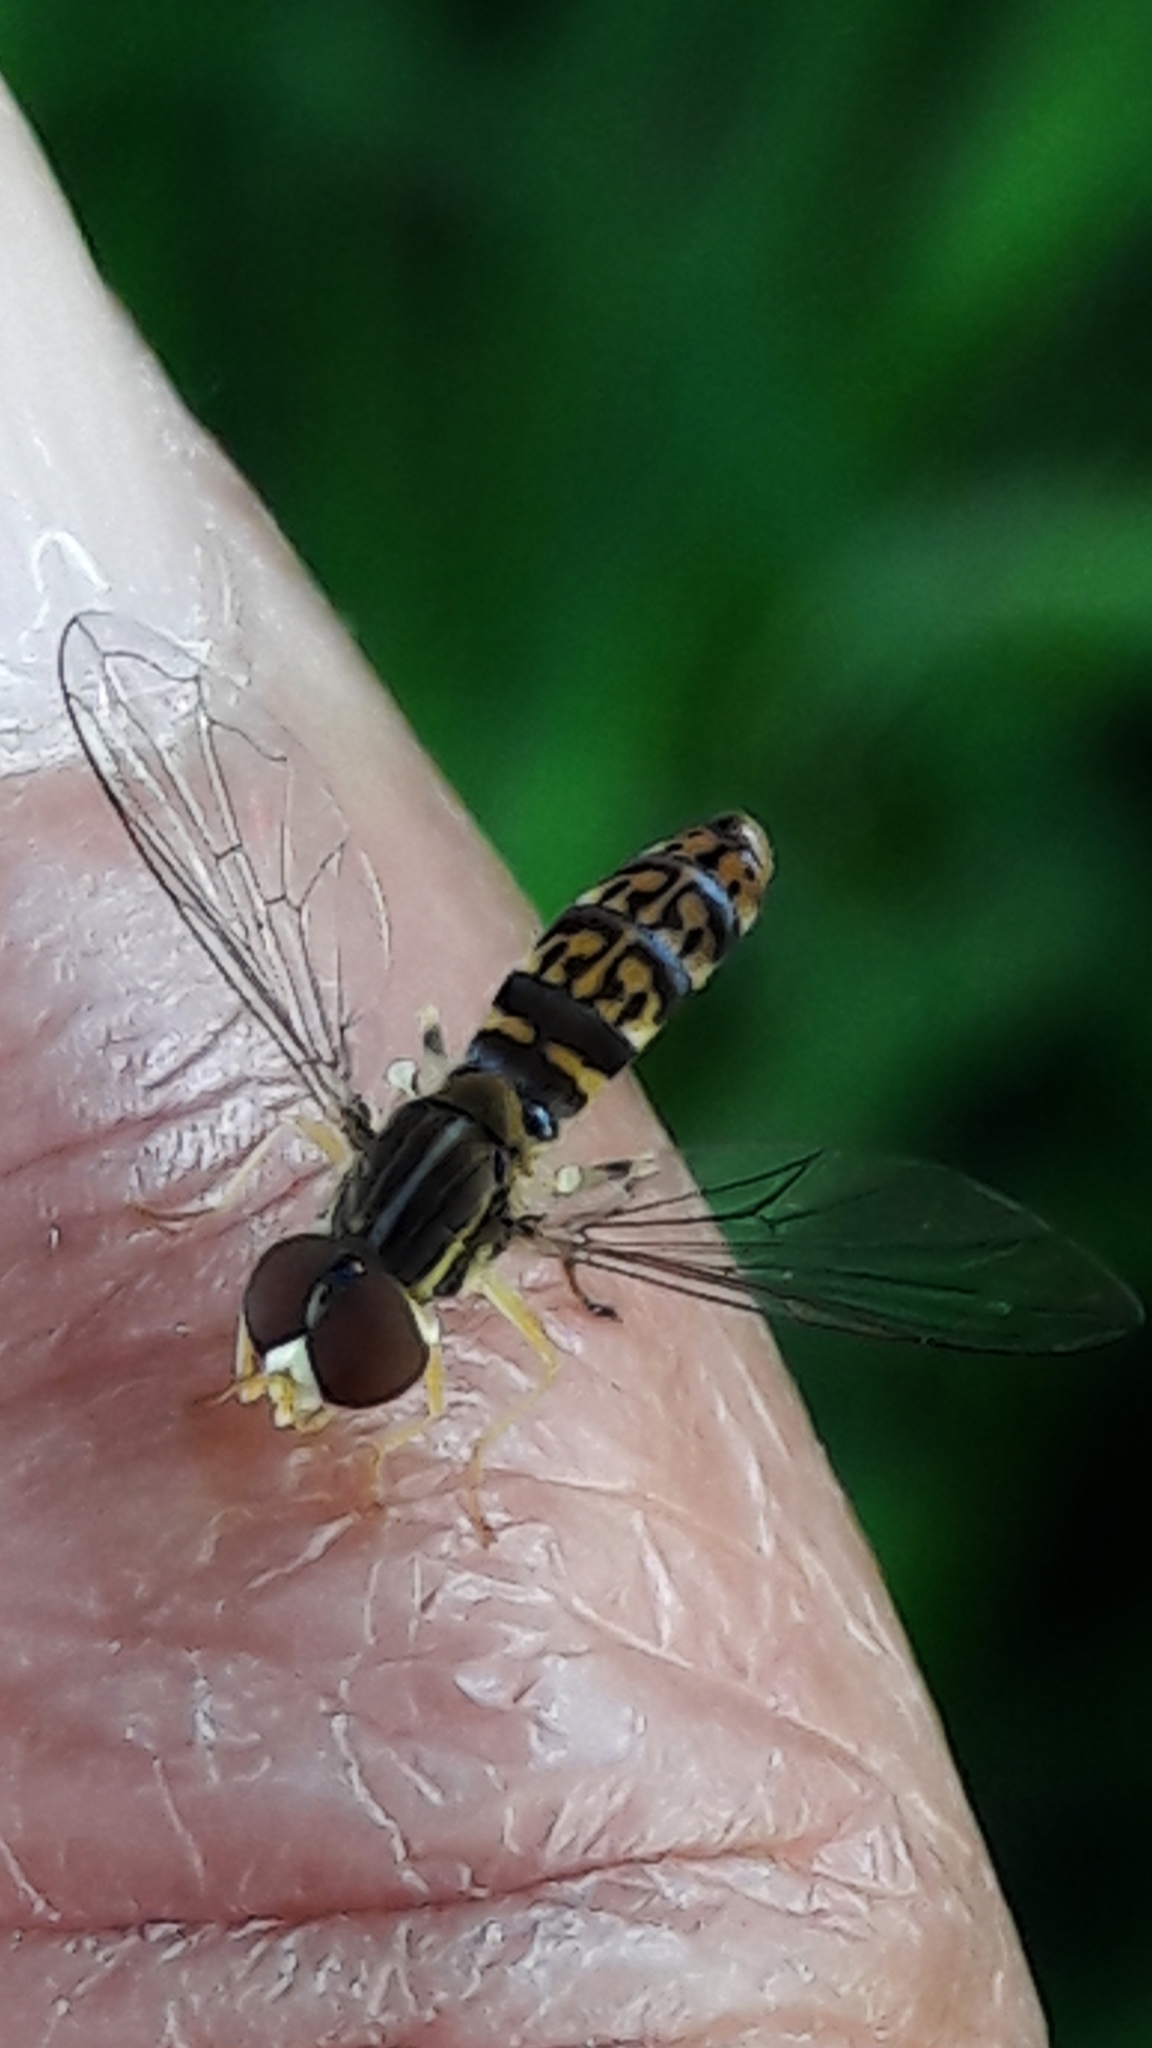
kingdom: Animalia
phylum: Arthropoda
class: Insecta
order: Diptera
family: Syrphidae
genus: Toxomerus
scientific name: Toxomerus
